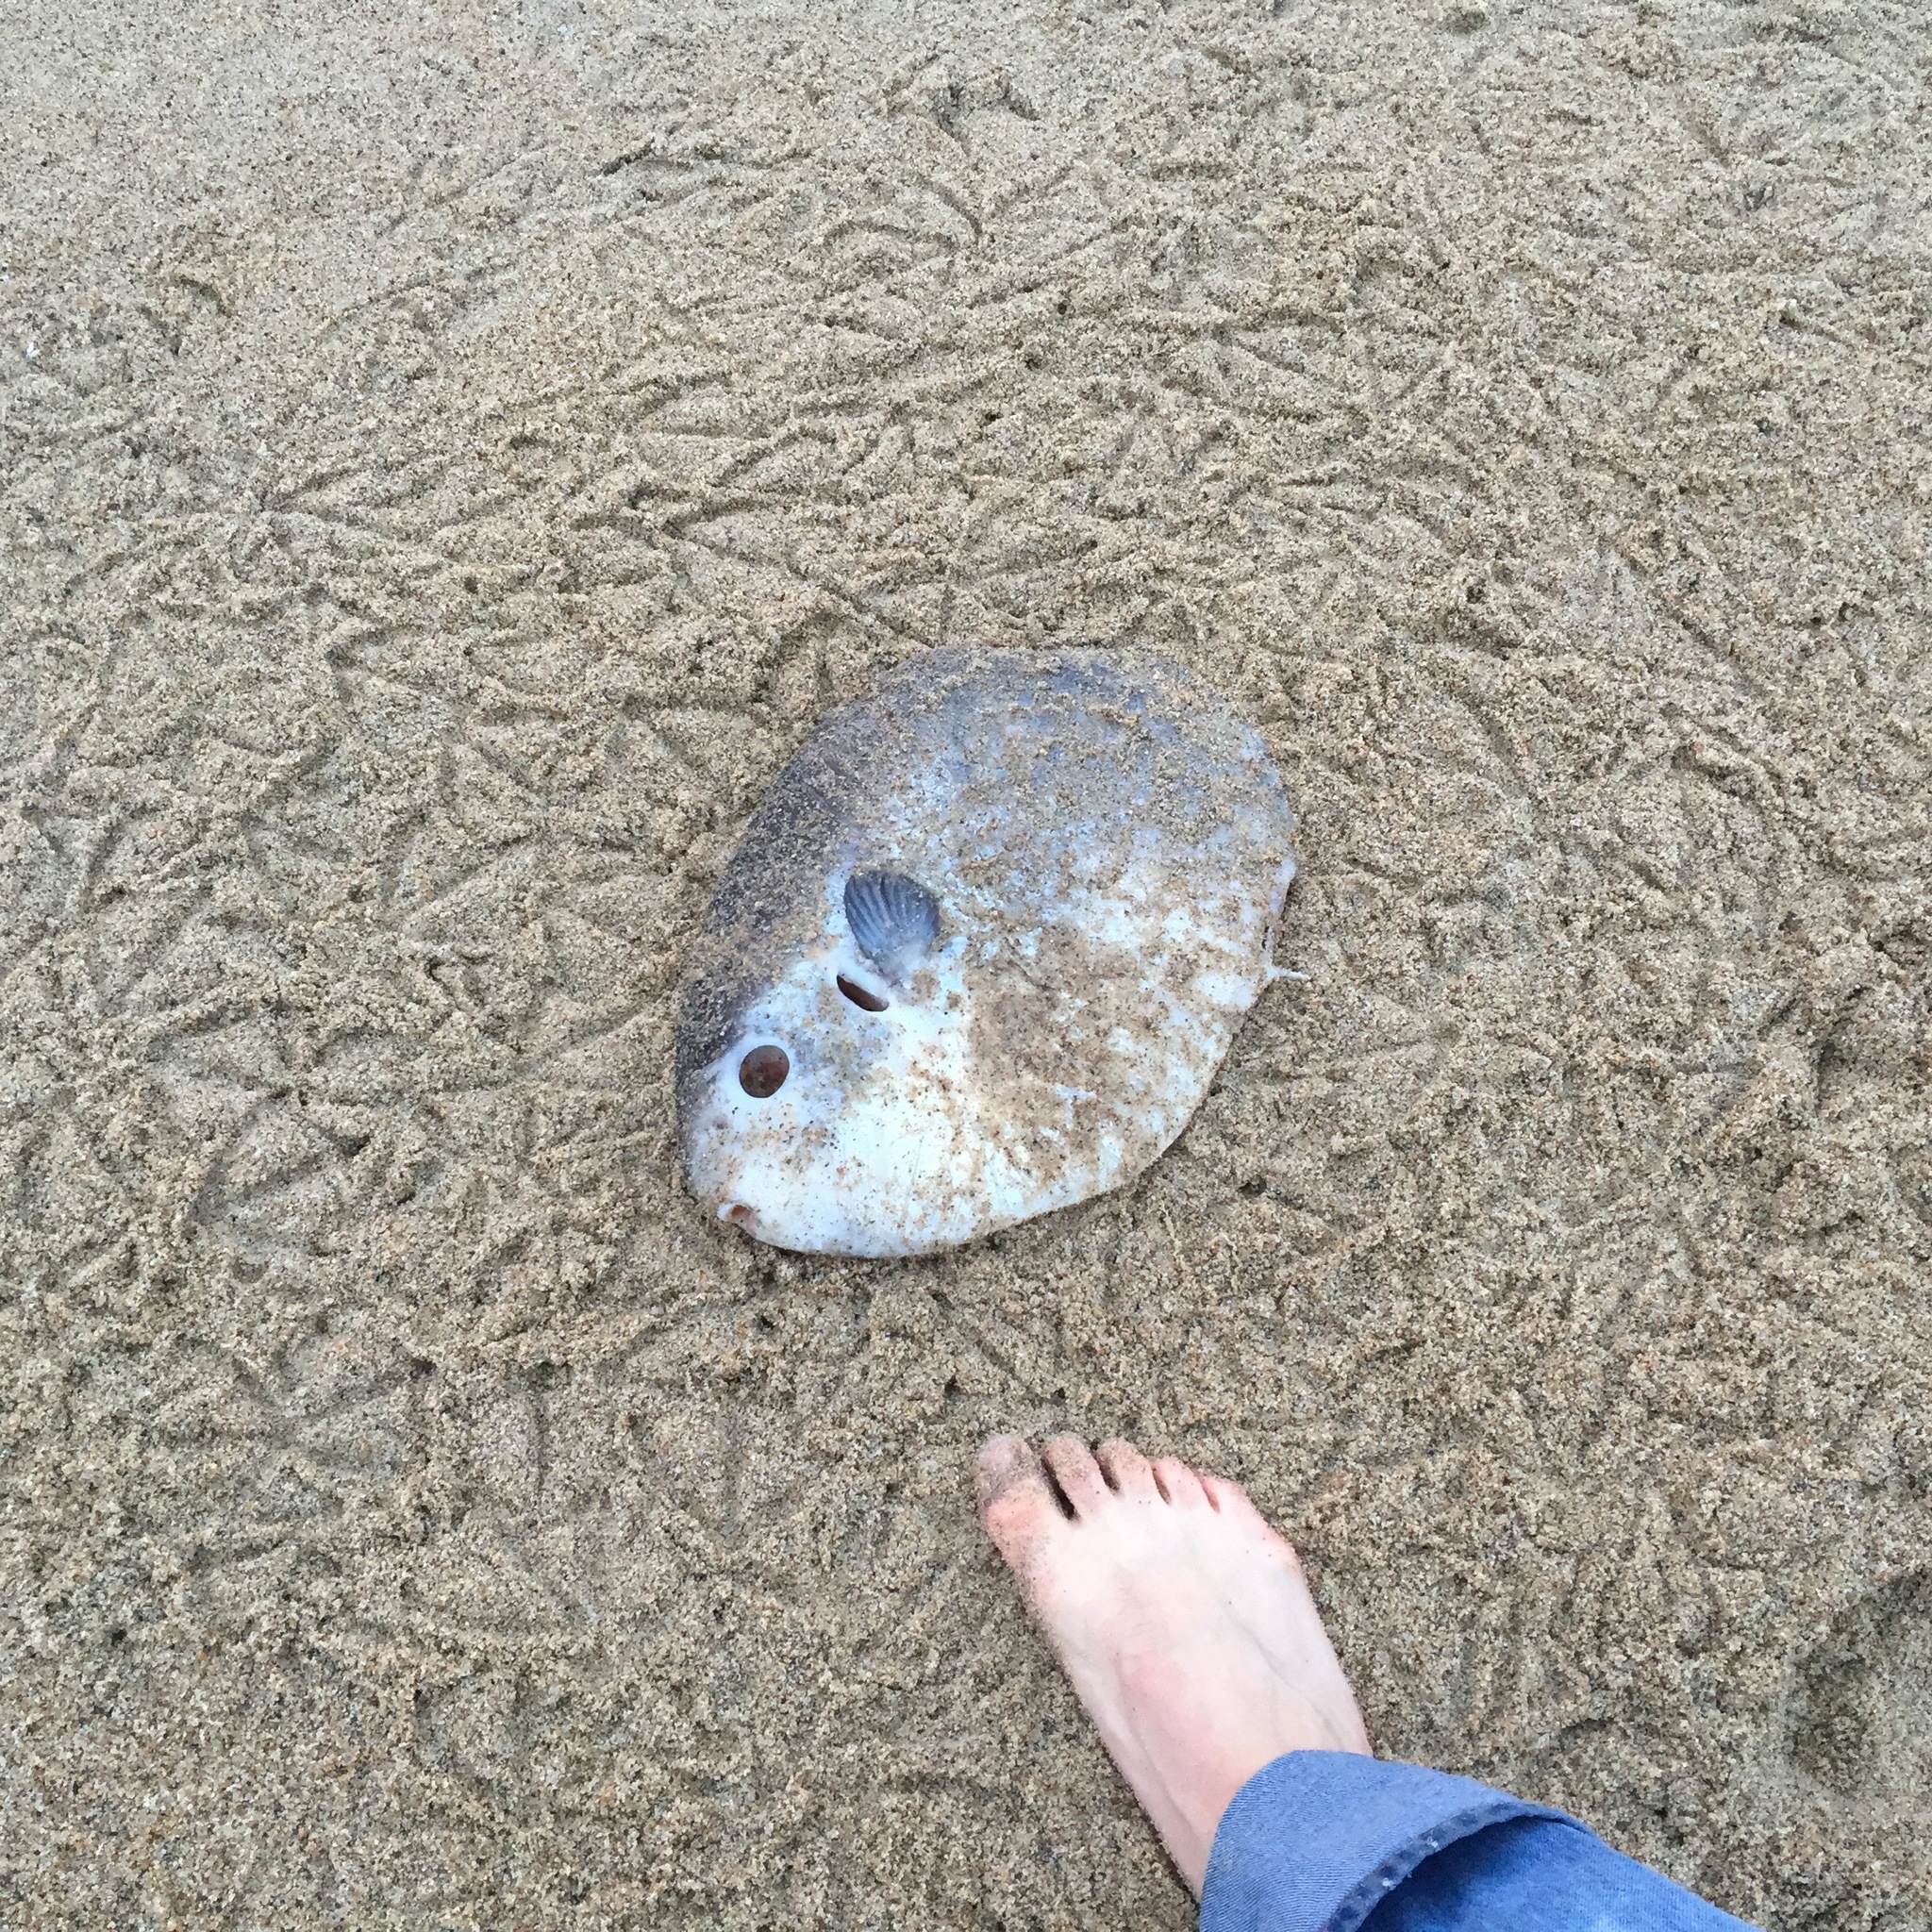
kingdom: Animalia
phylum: Chordata
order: Tetraodontiformes
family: Molidae
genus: Mola
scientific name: Mola mola
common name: Ocean sunfish
